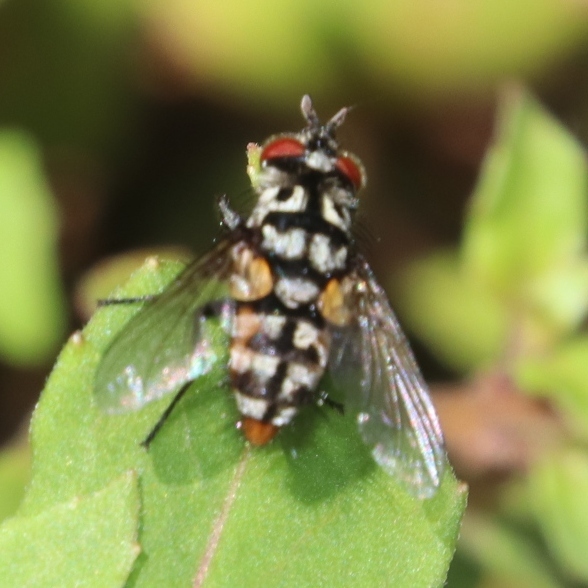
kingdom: Animalia
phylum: Arthropoda
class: Insecta
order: Diptera
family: Tachinidae
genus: Ossidingia
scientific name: Ossidingia
